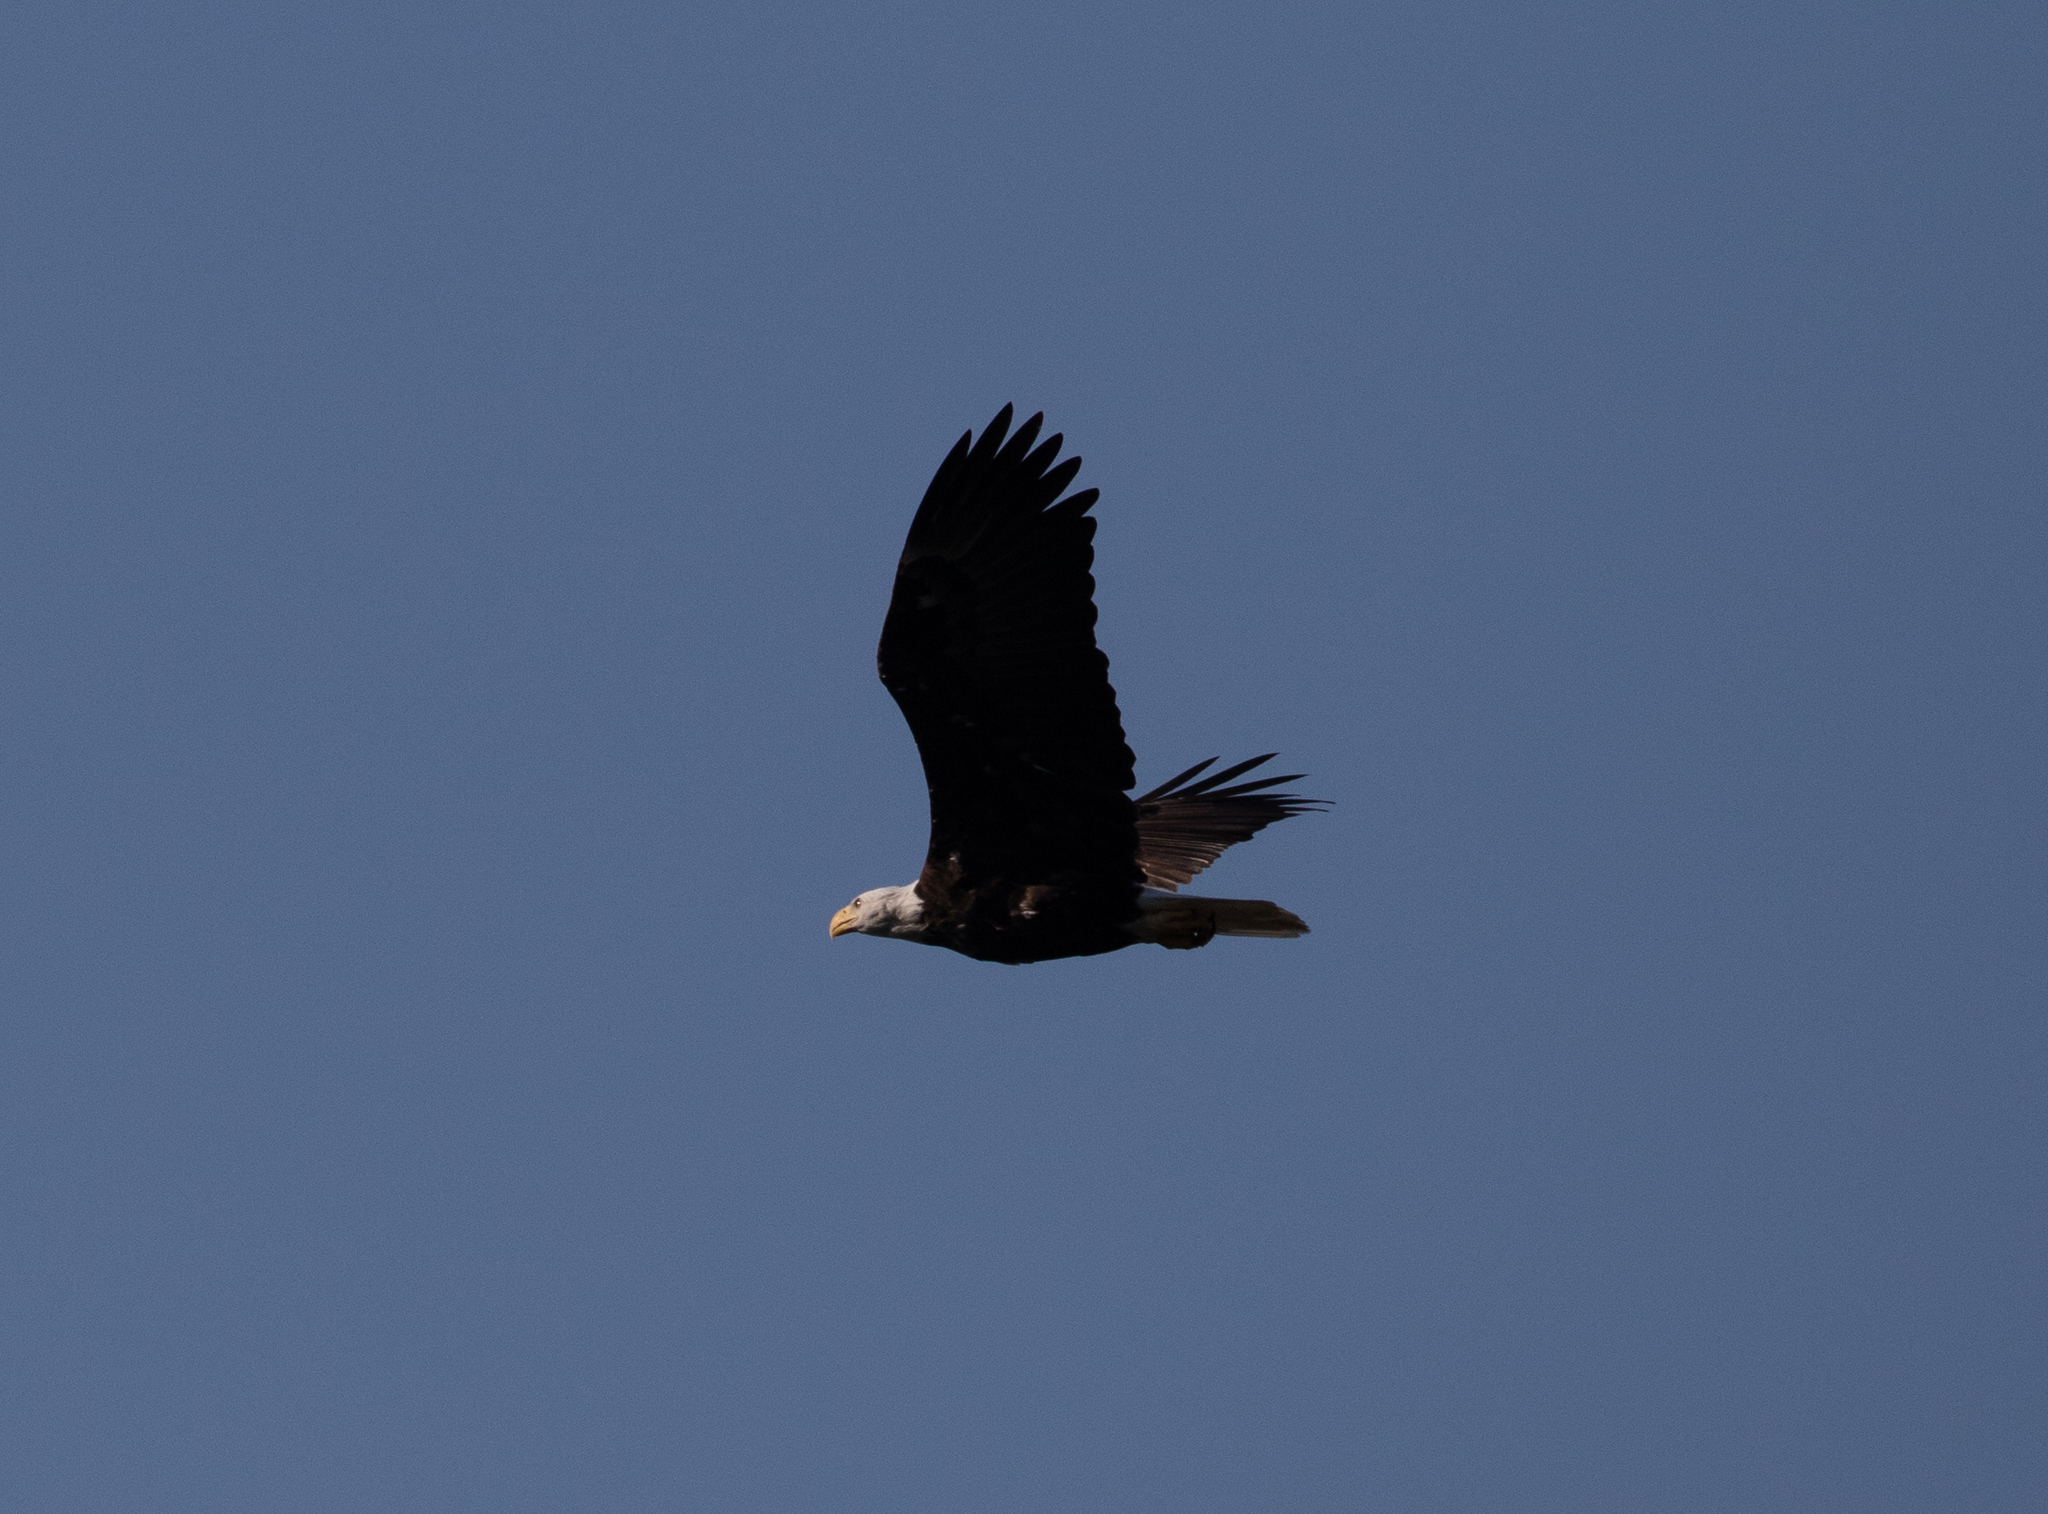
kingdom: Animalia
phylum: Chordata
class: Aves
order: Accipitriformes
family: Accipitridae
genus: Haliaeetus
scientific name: Haliaeetus leucocephalus
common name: Bald eagle
